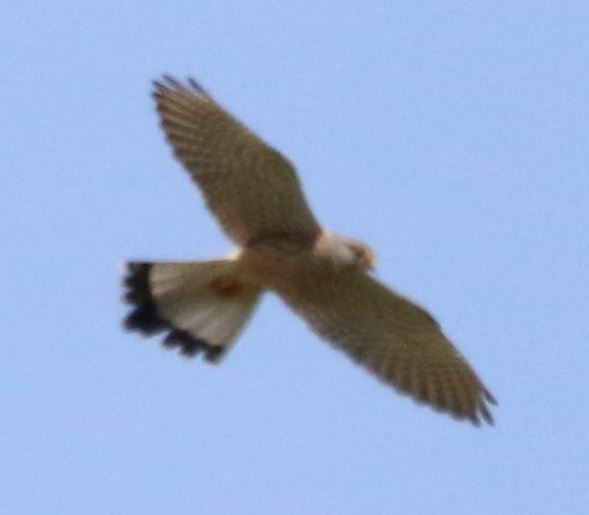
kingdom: Animalia
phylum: Chordata
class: Aves
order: Falconiformes
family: Falconidae
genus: Falco
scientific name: Falco tinnunculus
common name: Common kestrel
